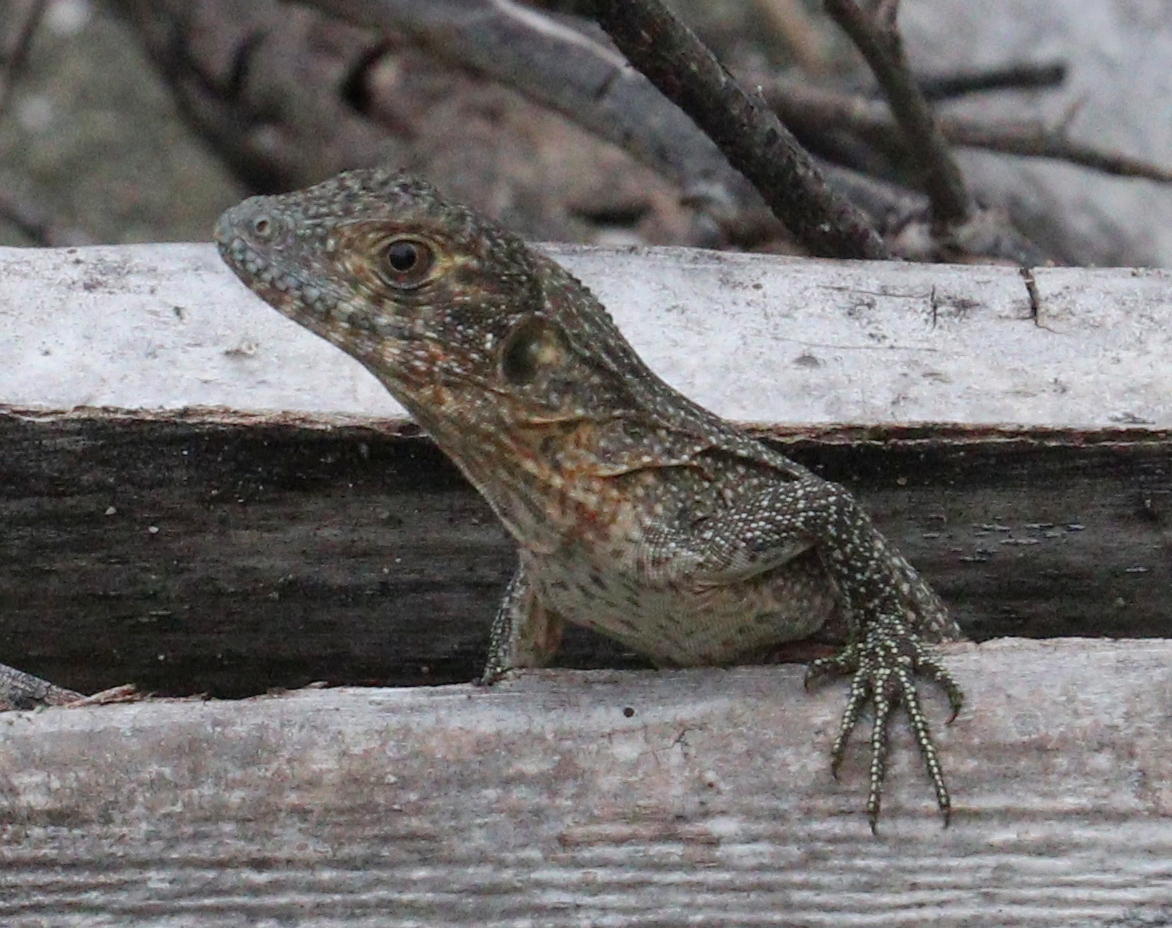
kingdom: Animalia
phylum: Chordata
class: Squamata
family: Iguanidae
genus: Ctenosaura
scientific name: Ctenosaura similis
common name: Black spiny-tailed iguana
